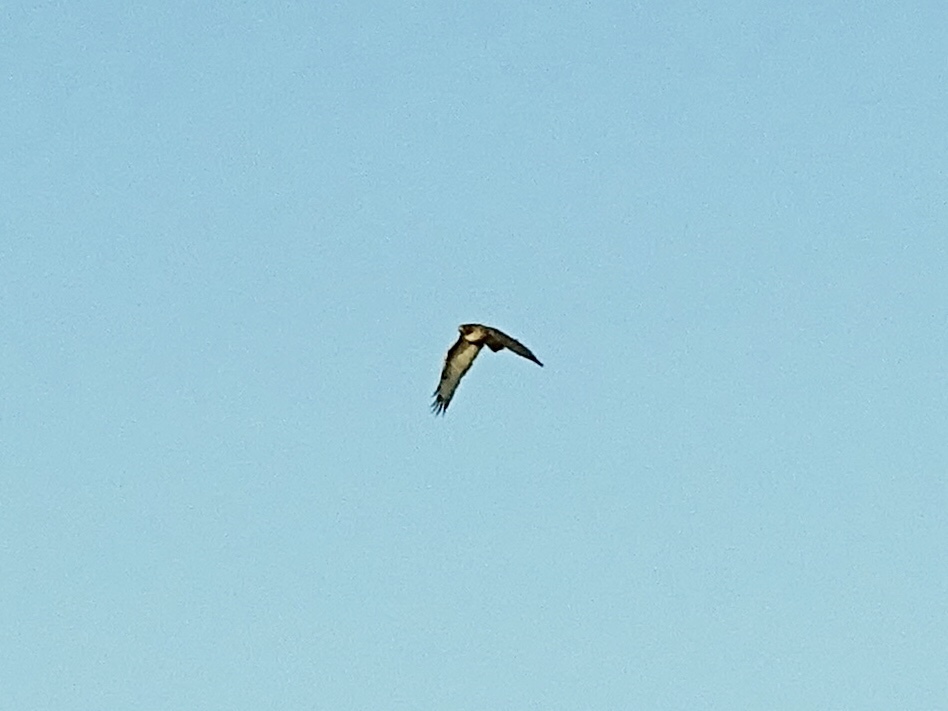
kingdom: Animalia
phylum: Chordata
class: Aves
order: Accipitriformes
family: Accipitridae
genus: Buteo
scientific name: Buteo jamaicensis
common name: Red-tailed hawk
